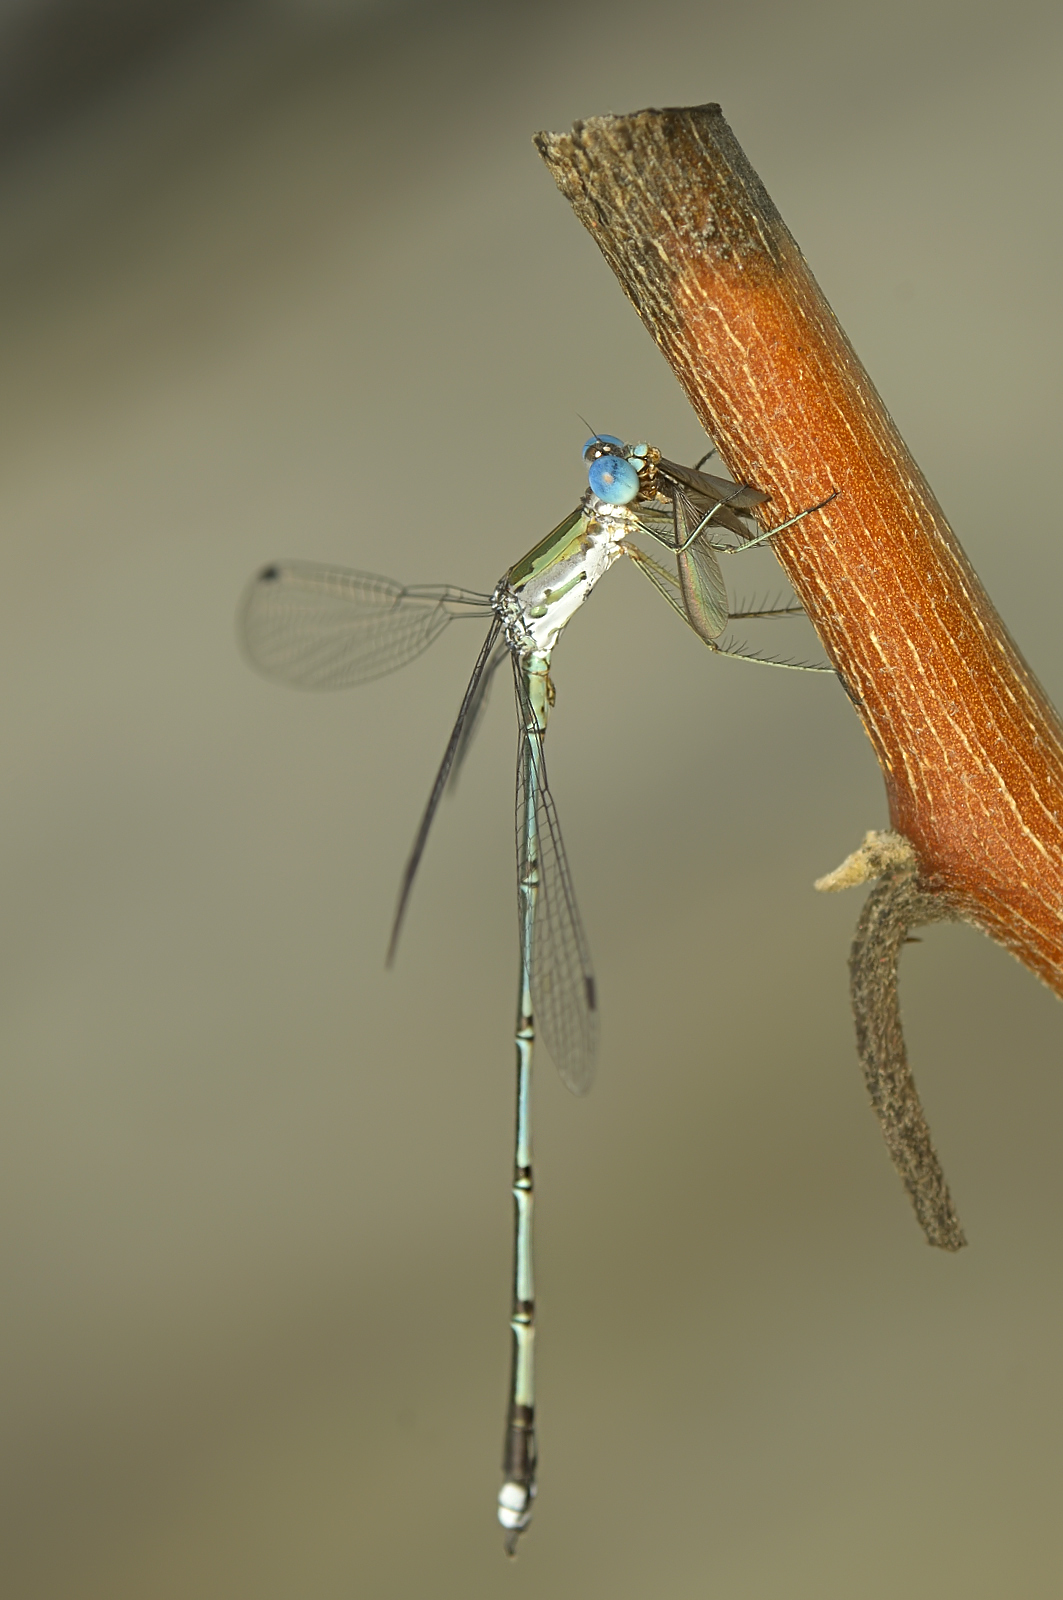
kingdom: Animalia
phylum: Arthropoda
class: Insecta
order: Odonata
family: Lestidae
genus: Lestes
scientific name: Lestes elatus
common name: Emerald spreadwing
